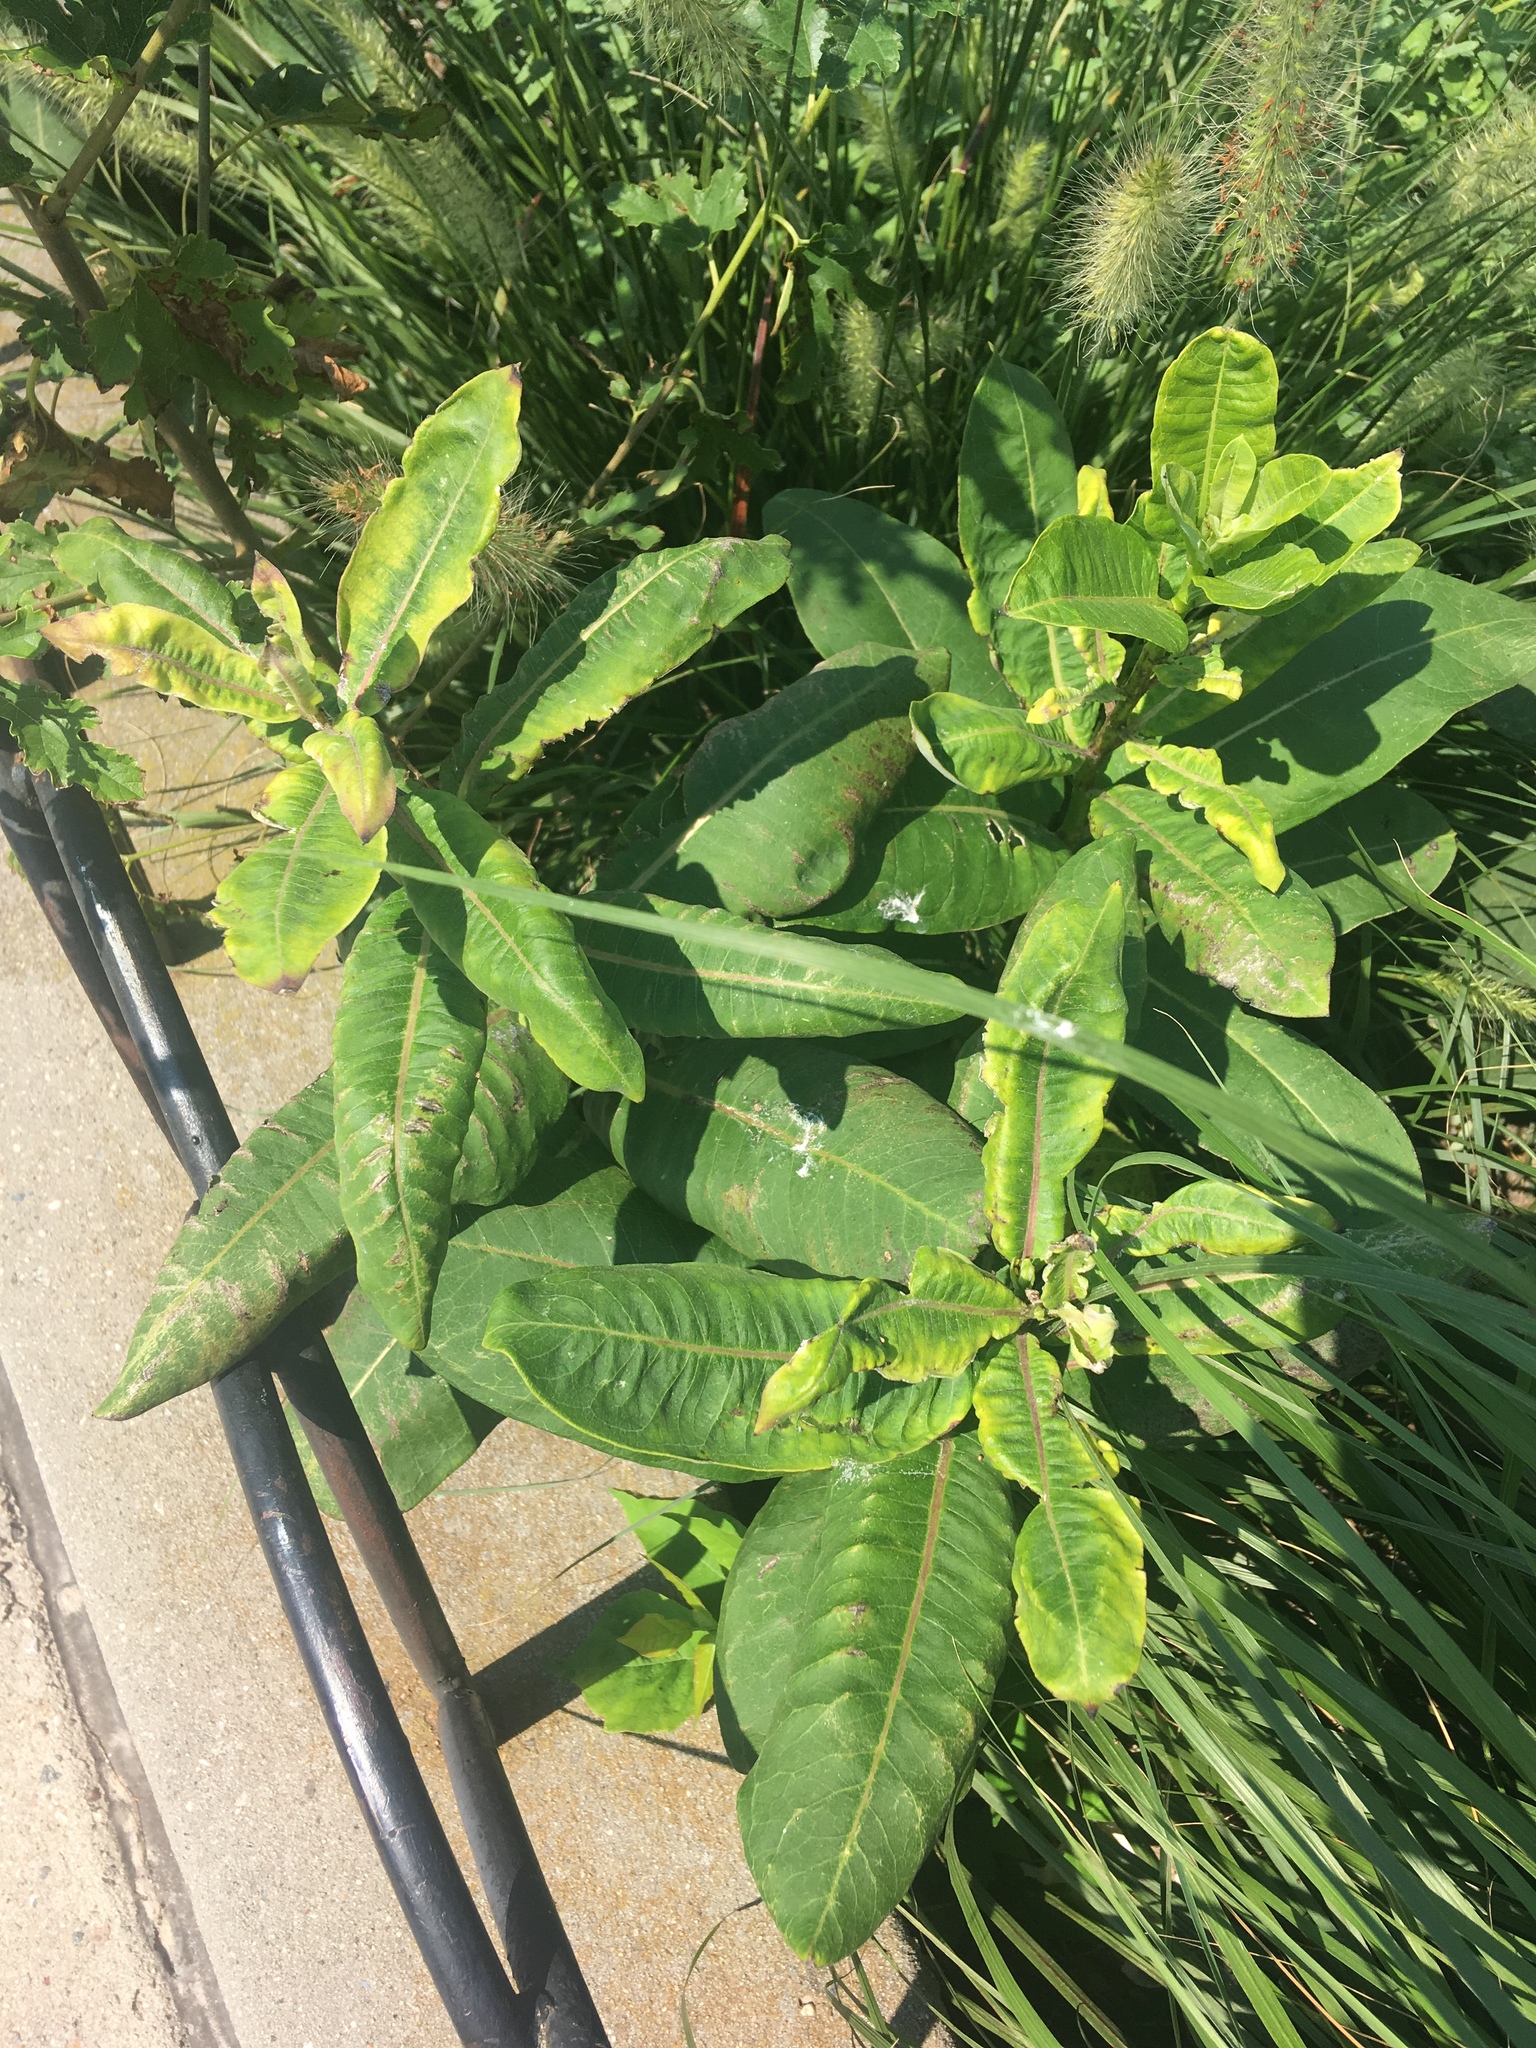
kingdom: Plantae
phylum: Tracheophyta
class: Magnoliopsida
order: Gentianales
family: Apocynaceae
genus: Asclepias
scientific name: Asclepias syriaca
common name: Common milkweed
